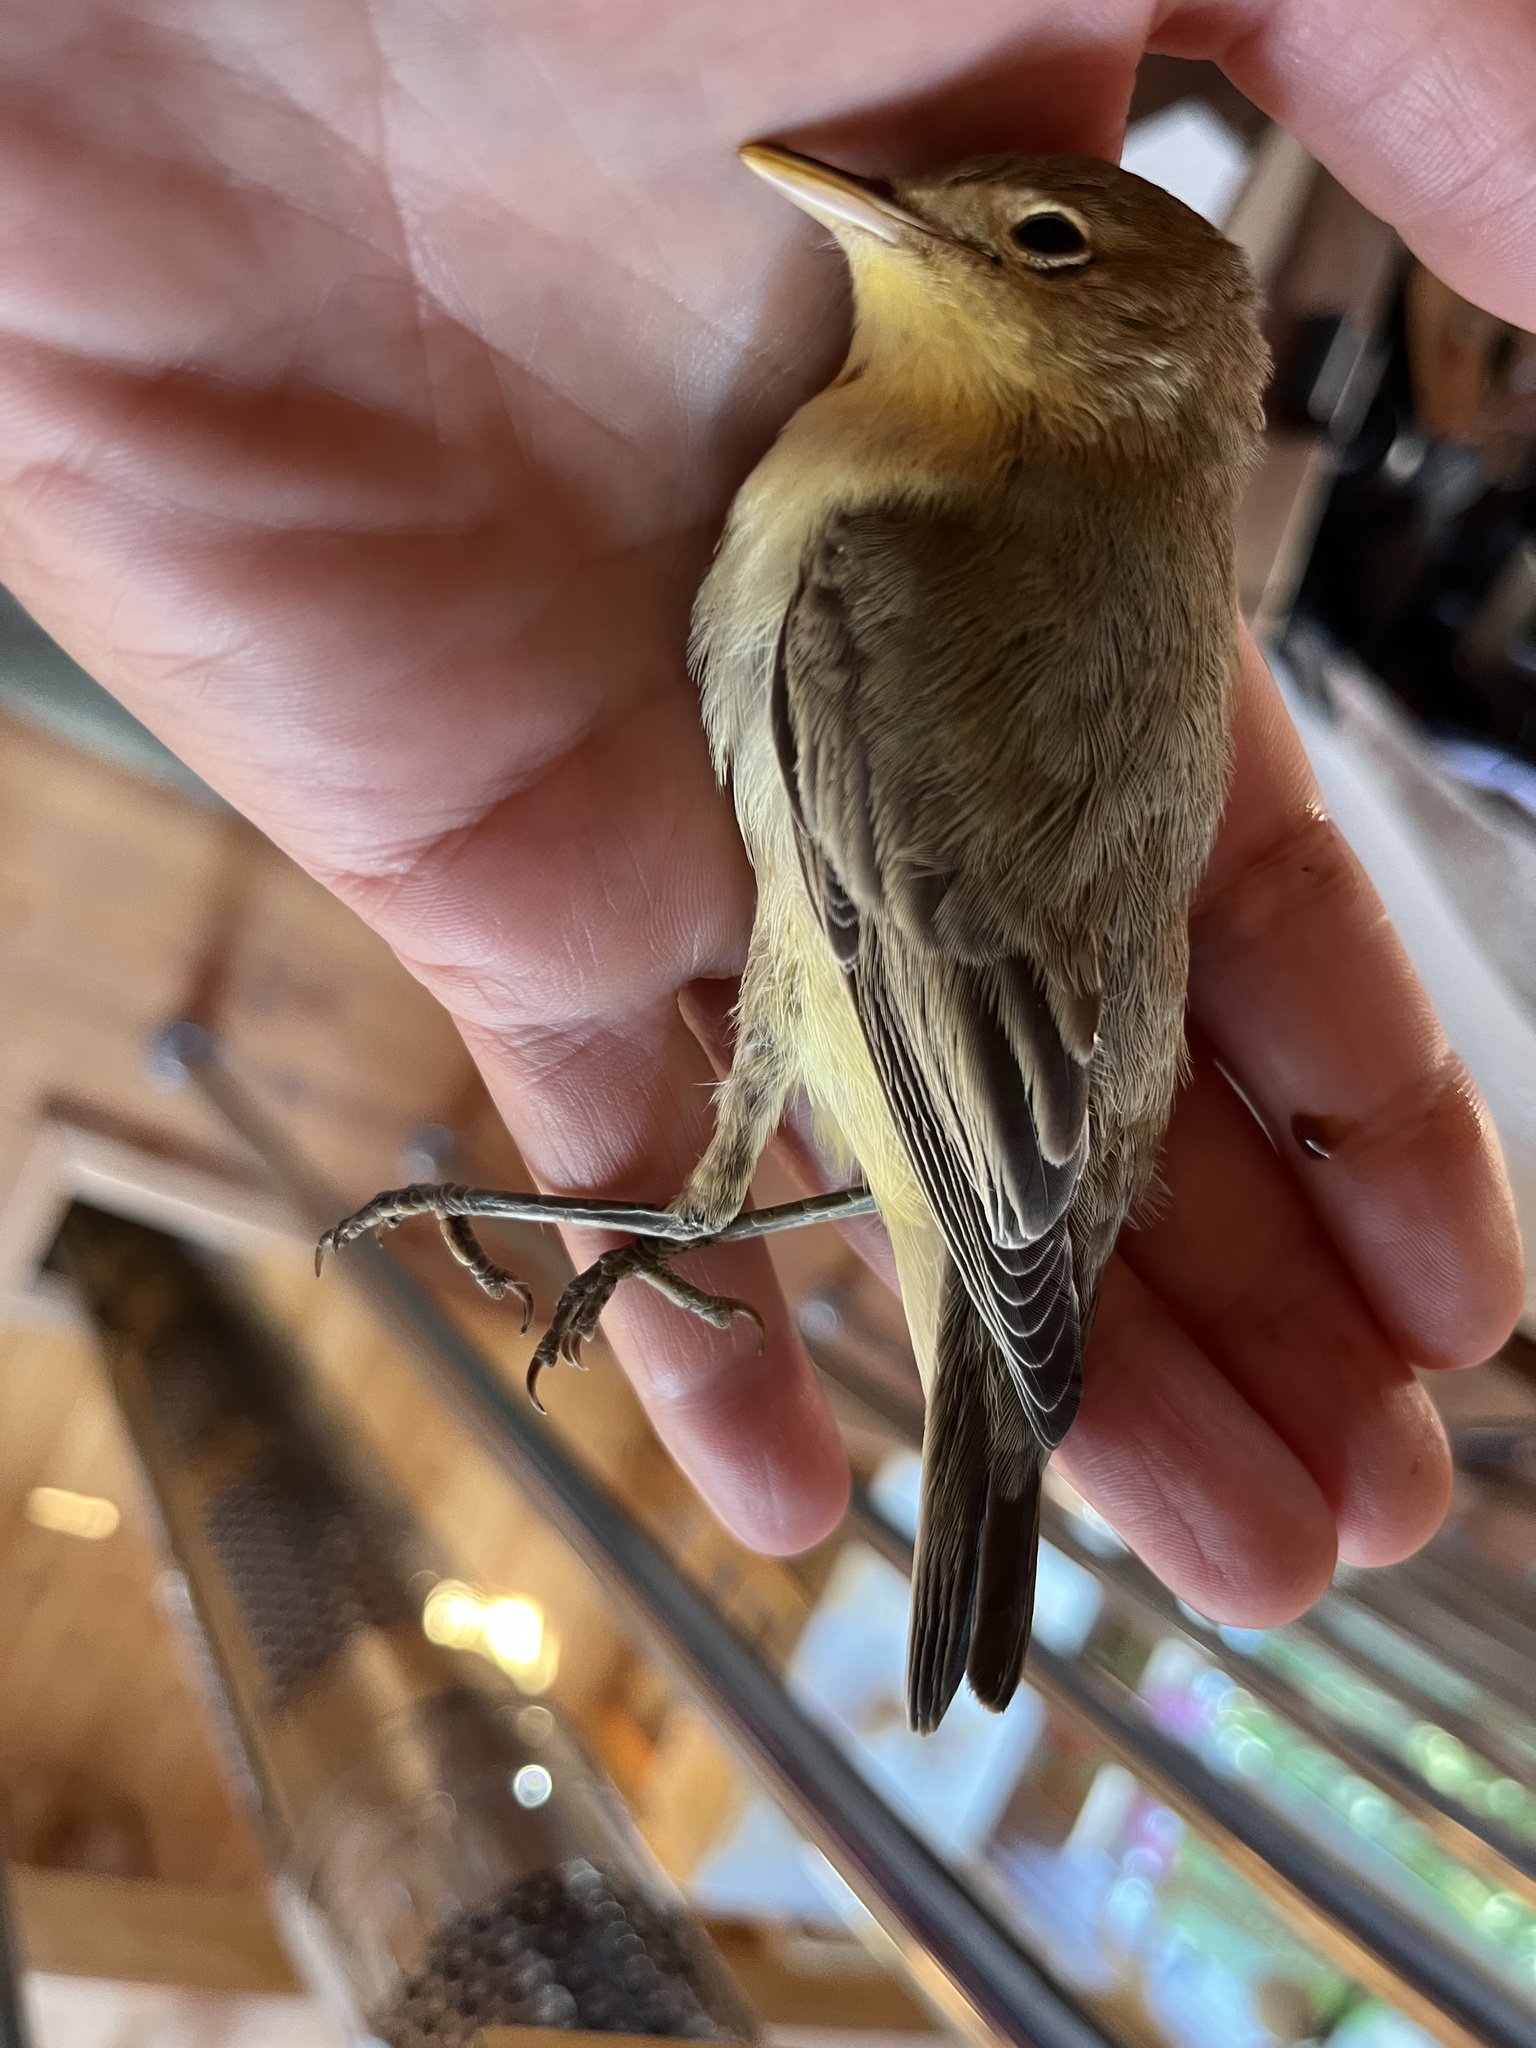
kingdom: Animalia
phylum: Chordata
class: Aves
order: Passeriformes
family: Acrocephalidae
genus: Hippolais
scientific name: Hippolais icterina
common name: Icterine warbler
